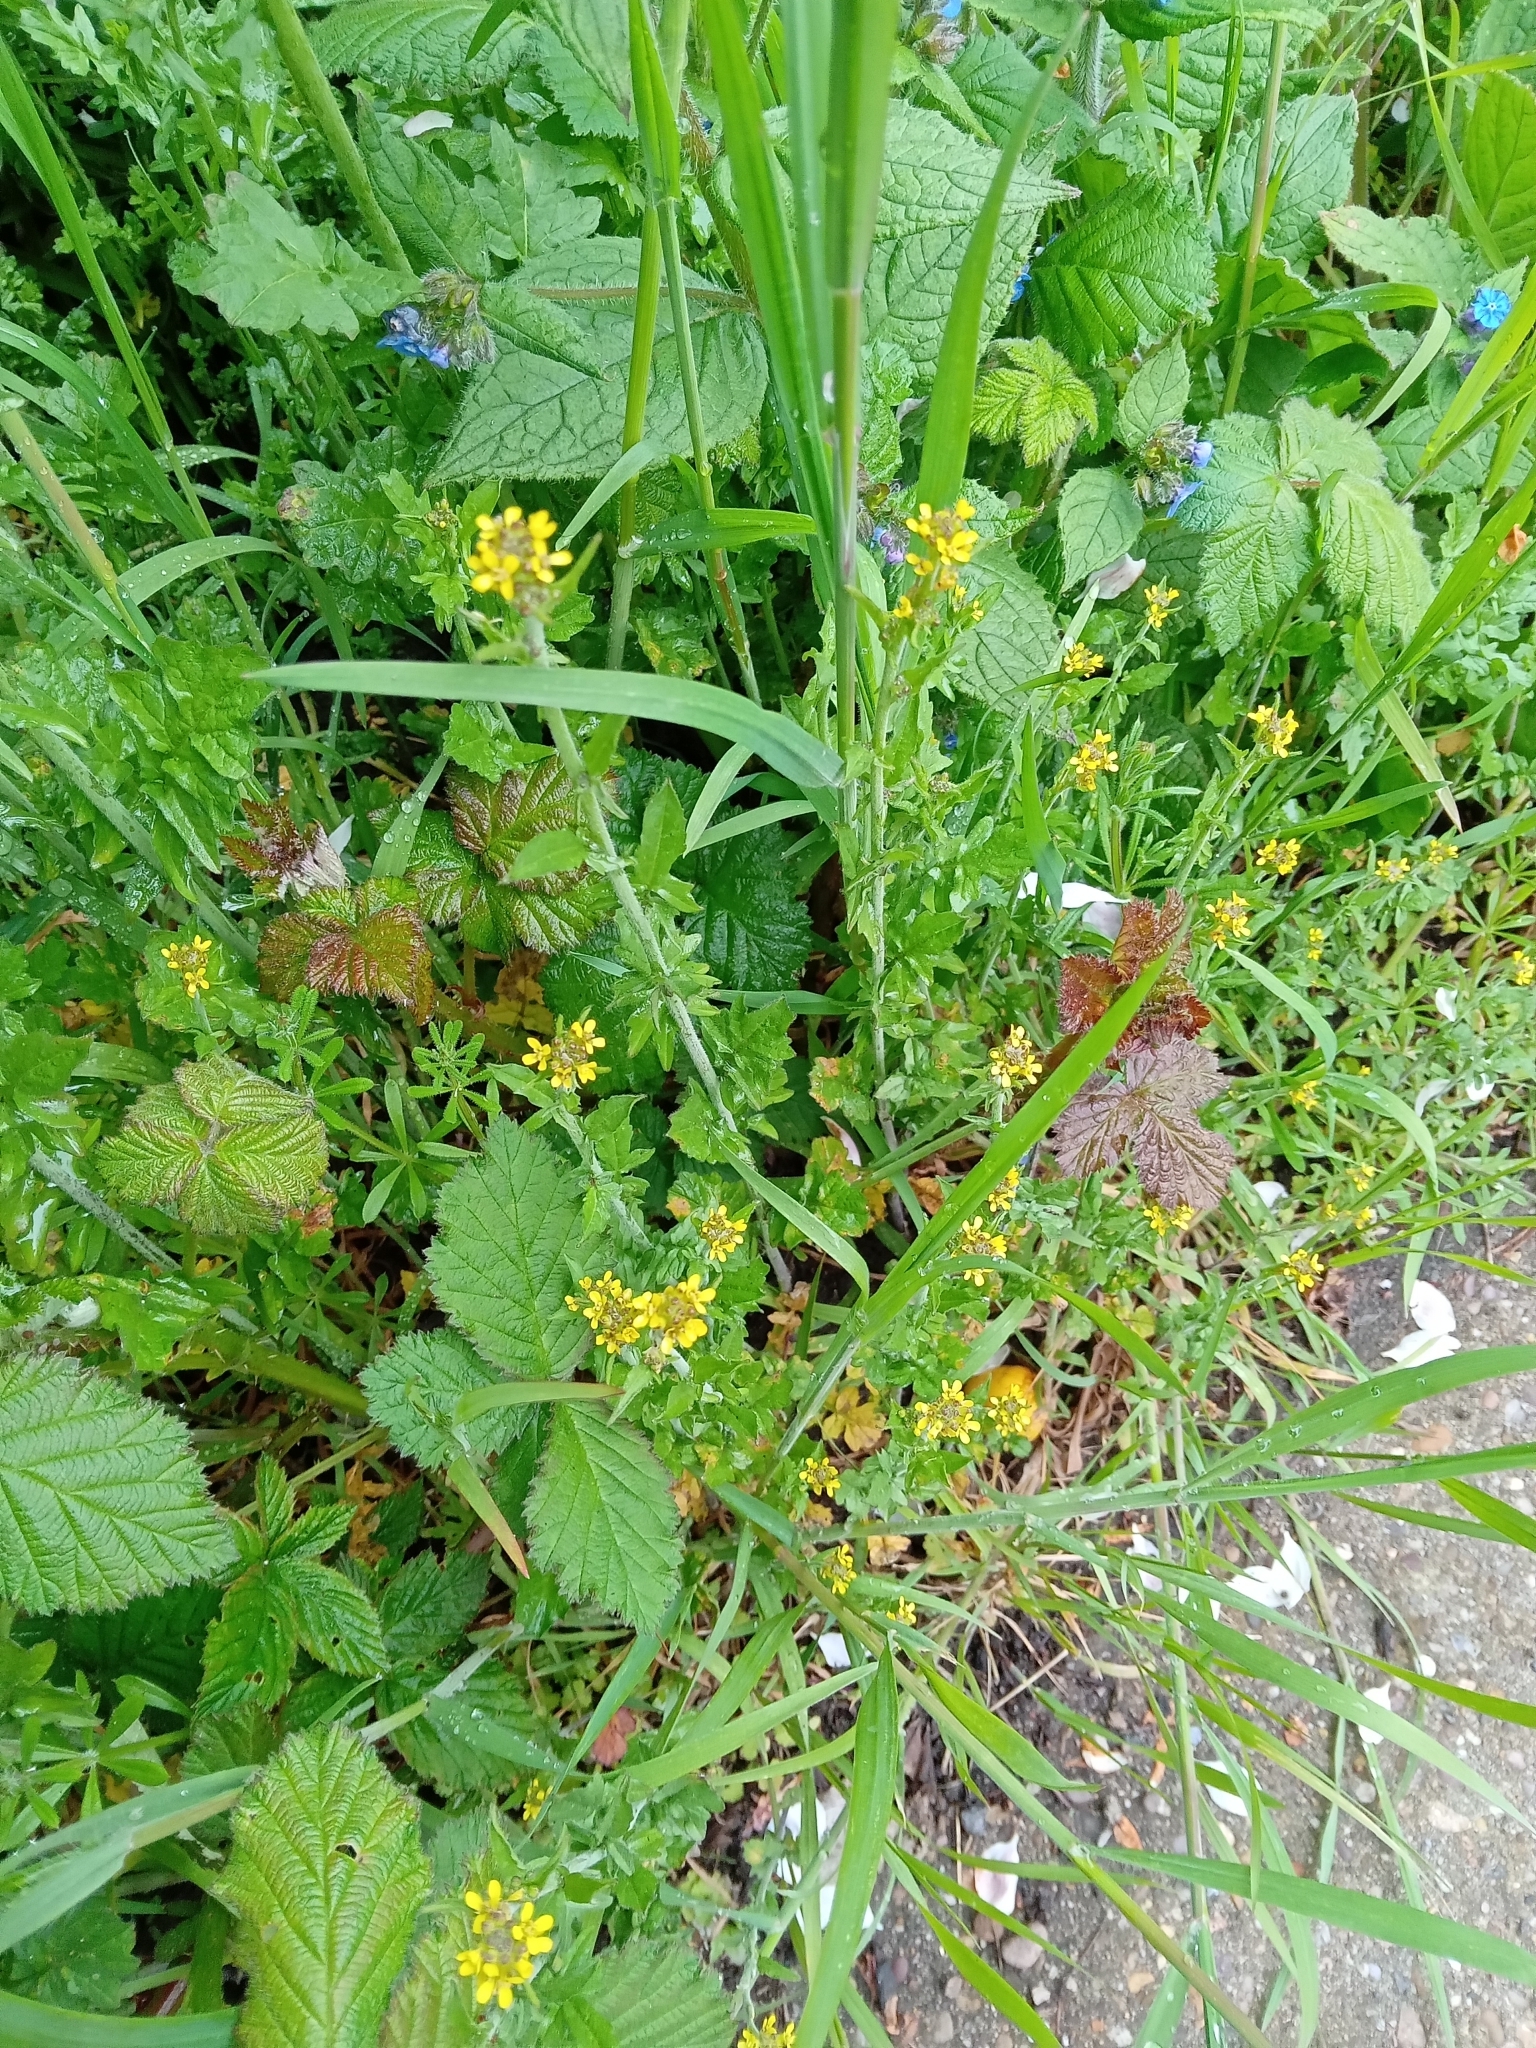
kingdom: Plantae
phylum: Tracheophyta
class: Magnoliopsida
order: Brassicales
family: Brassicaceae
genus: Sisymbrium
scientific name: Sisymbrium officinale
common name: Hedge mustard
